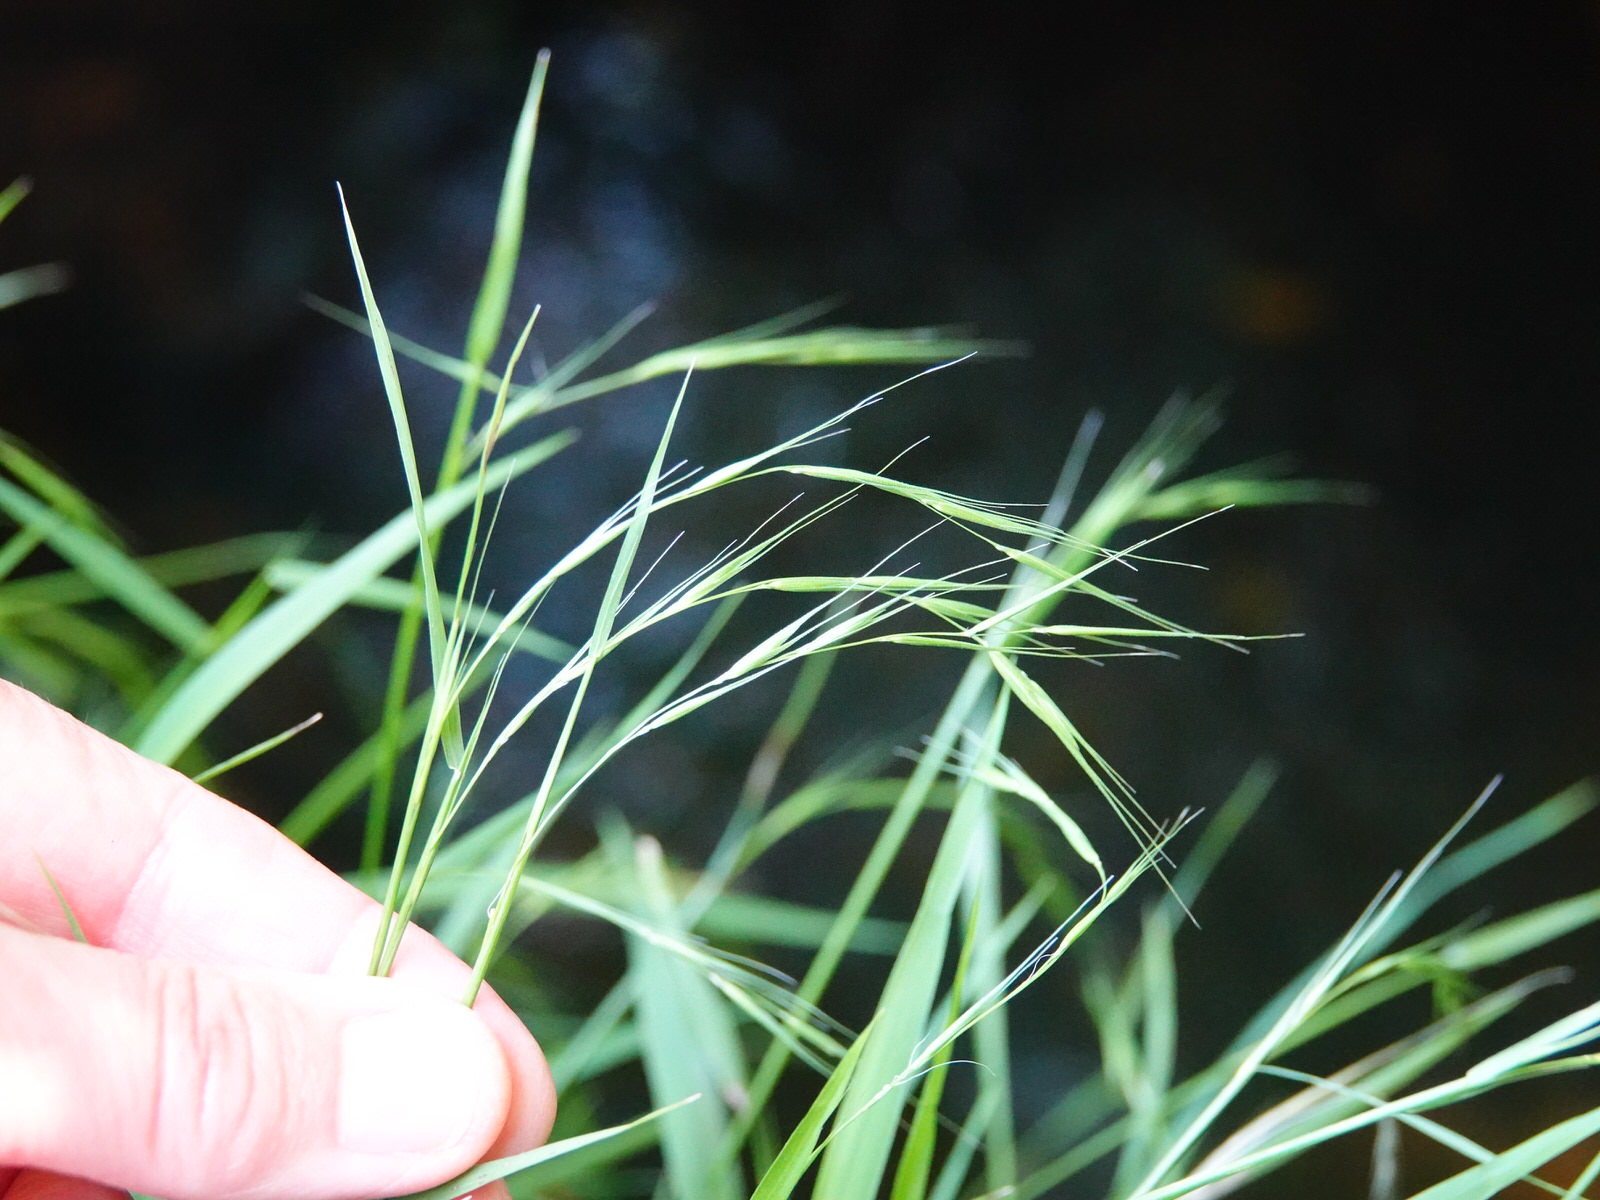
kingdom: Plantae
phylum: Tracheophyta
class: Liliopsida
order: Poales
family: Poaceae
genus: Microlaena
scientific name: Microlaena stipoides
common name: Meadow ricegrass
